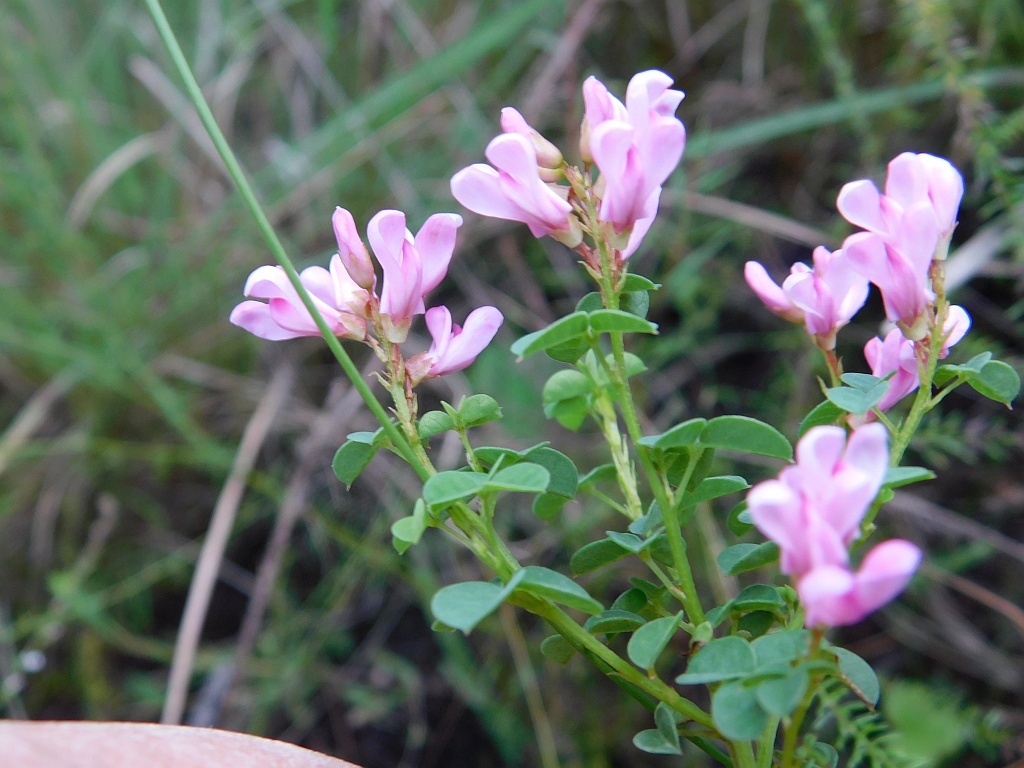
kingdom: Plantae
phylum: Tracheophyta
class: Magnoliopsida
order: Fabales
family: Fabaceae
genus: Hypocalyptus
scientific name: Hypocalyptus oxalidifolius
